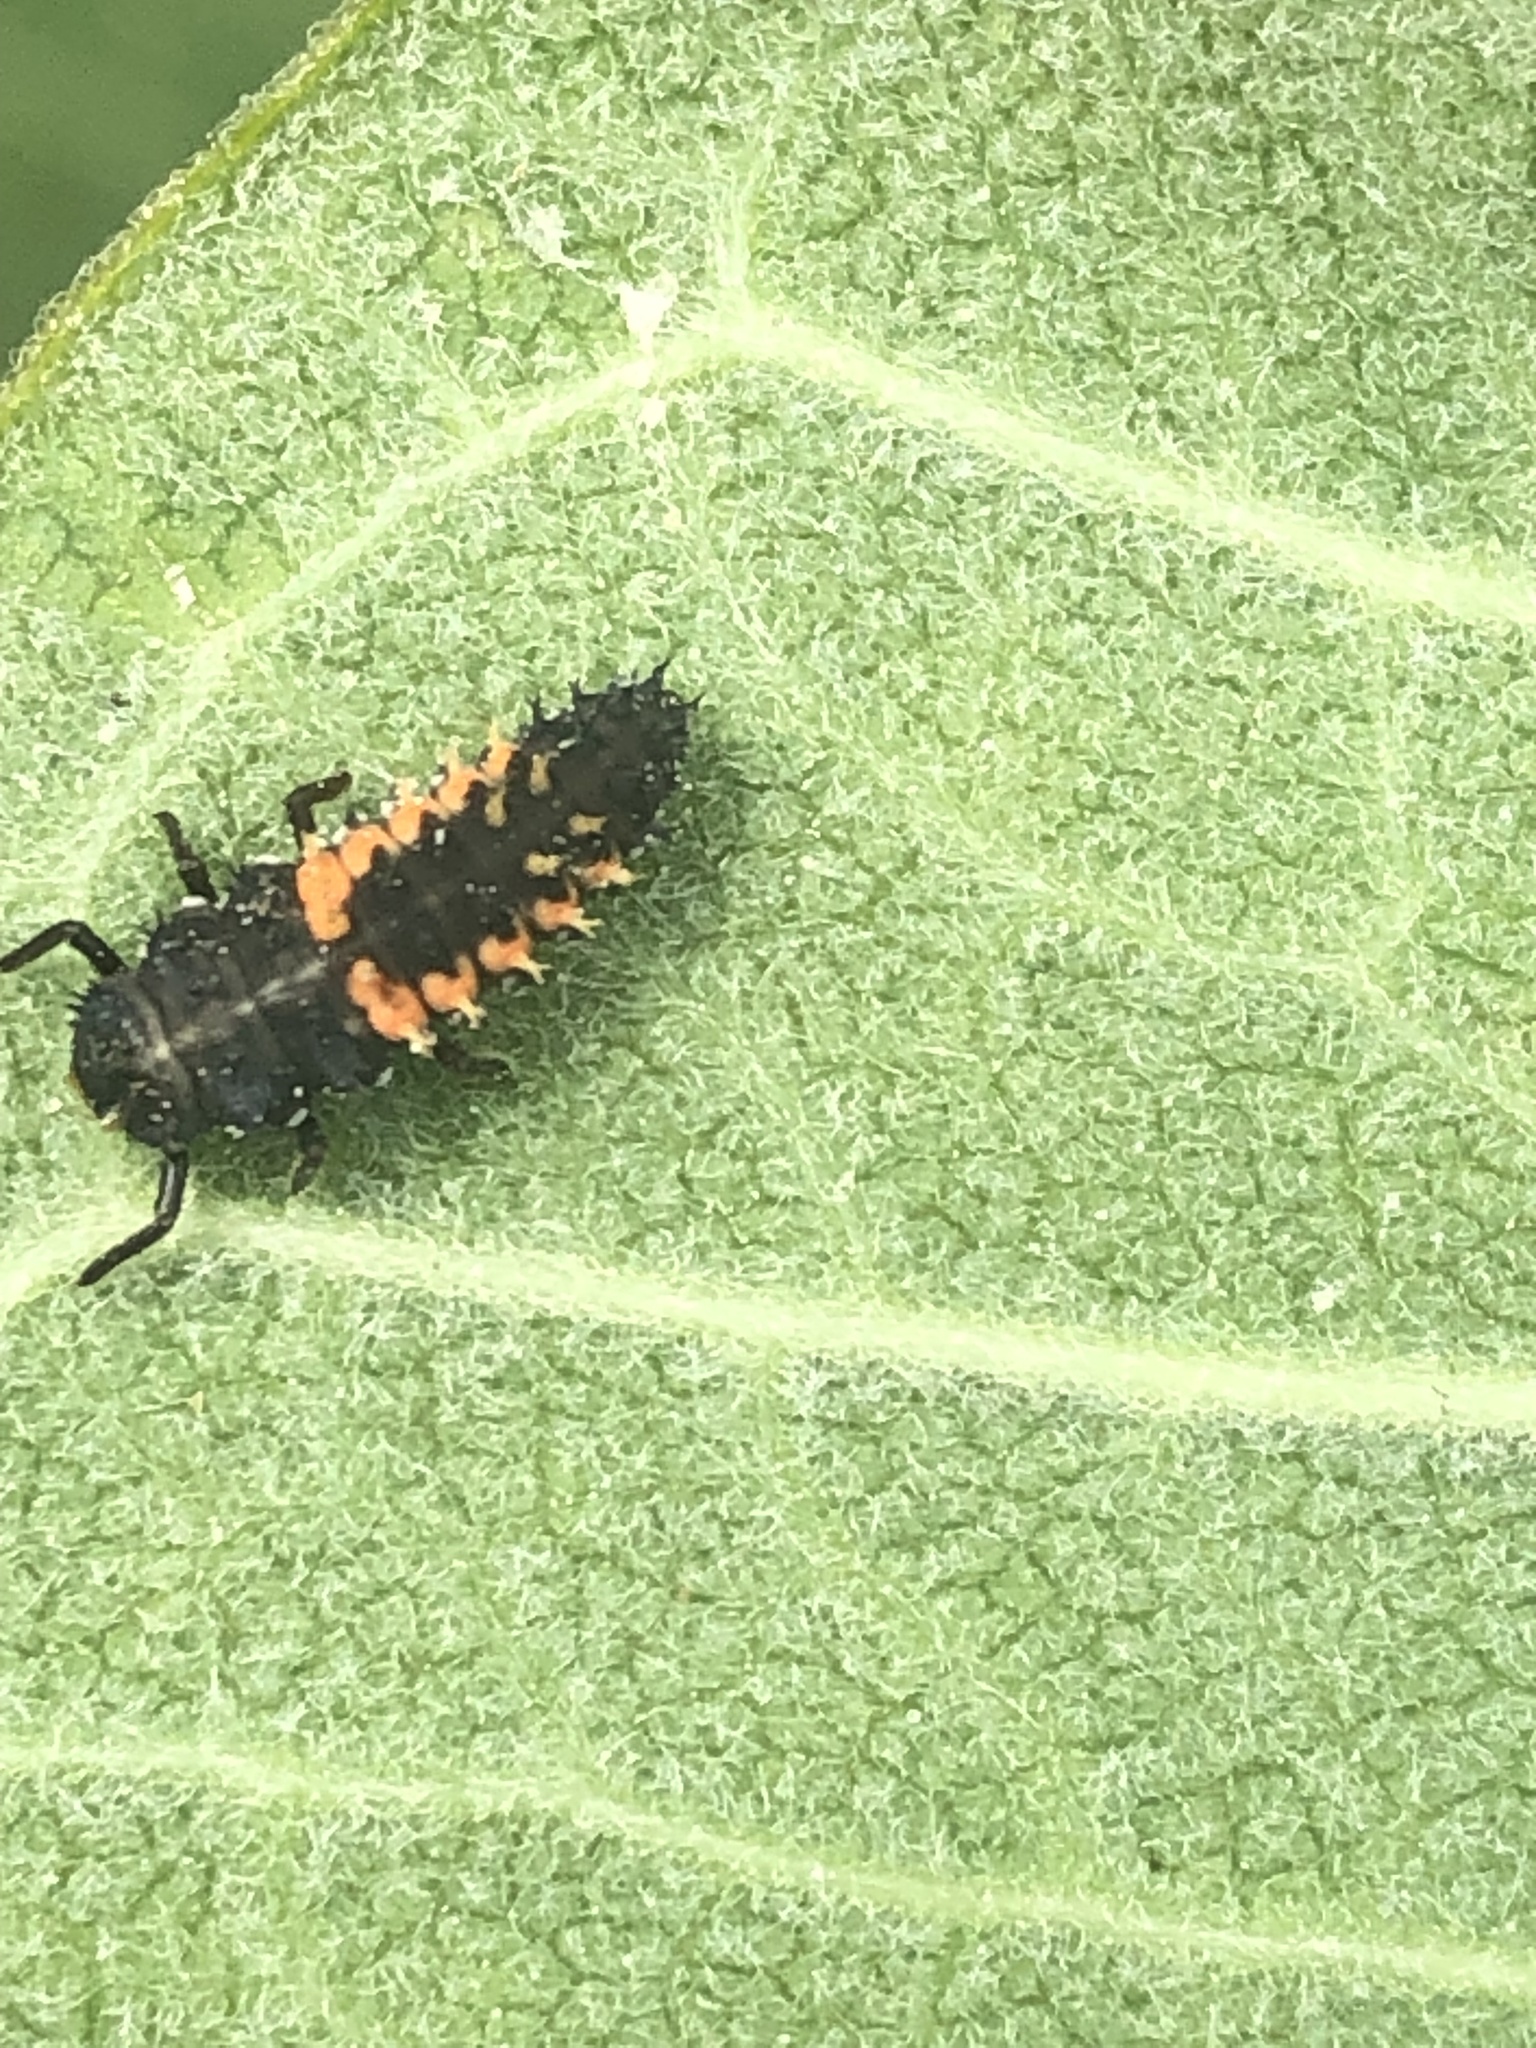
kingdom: Animalia
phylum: Arthropoda
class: Insecta
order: Coleoptera
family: Coccinellidae
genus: Harmonia
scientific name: Harmonia axyridis
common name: Harlequin ladybird
